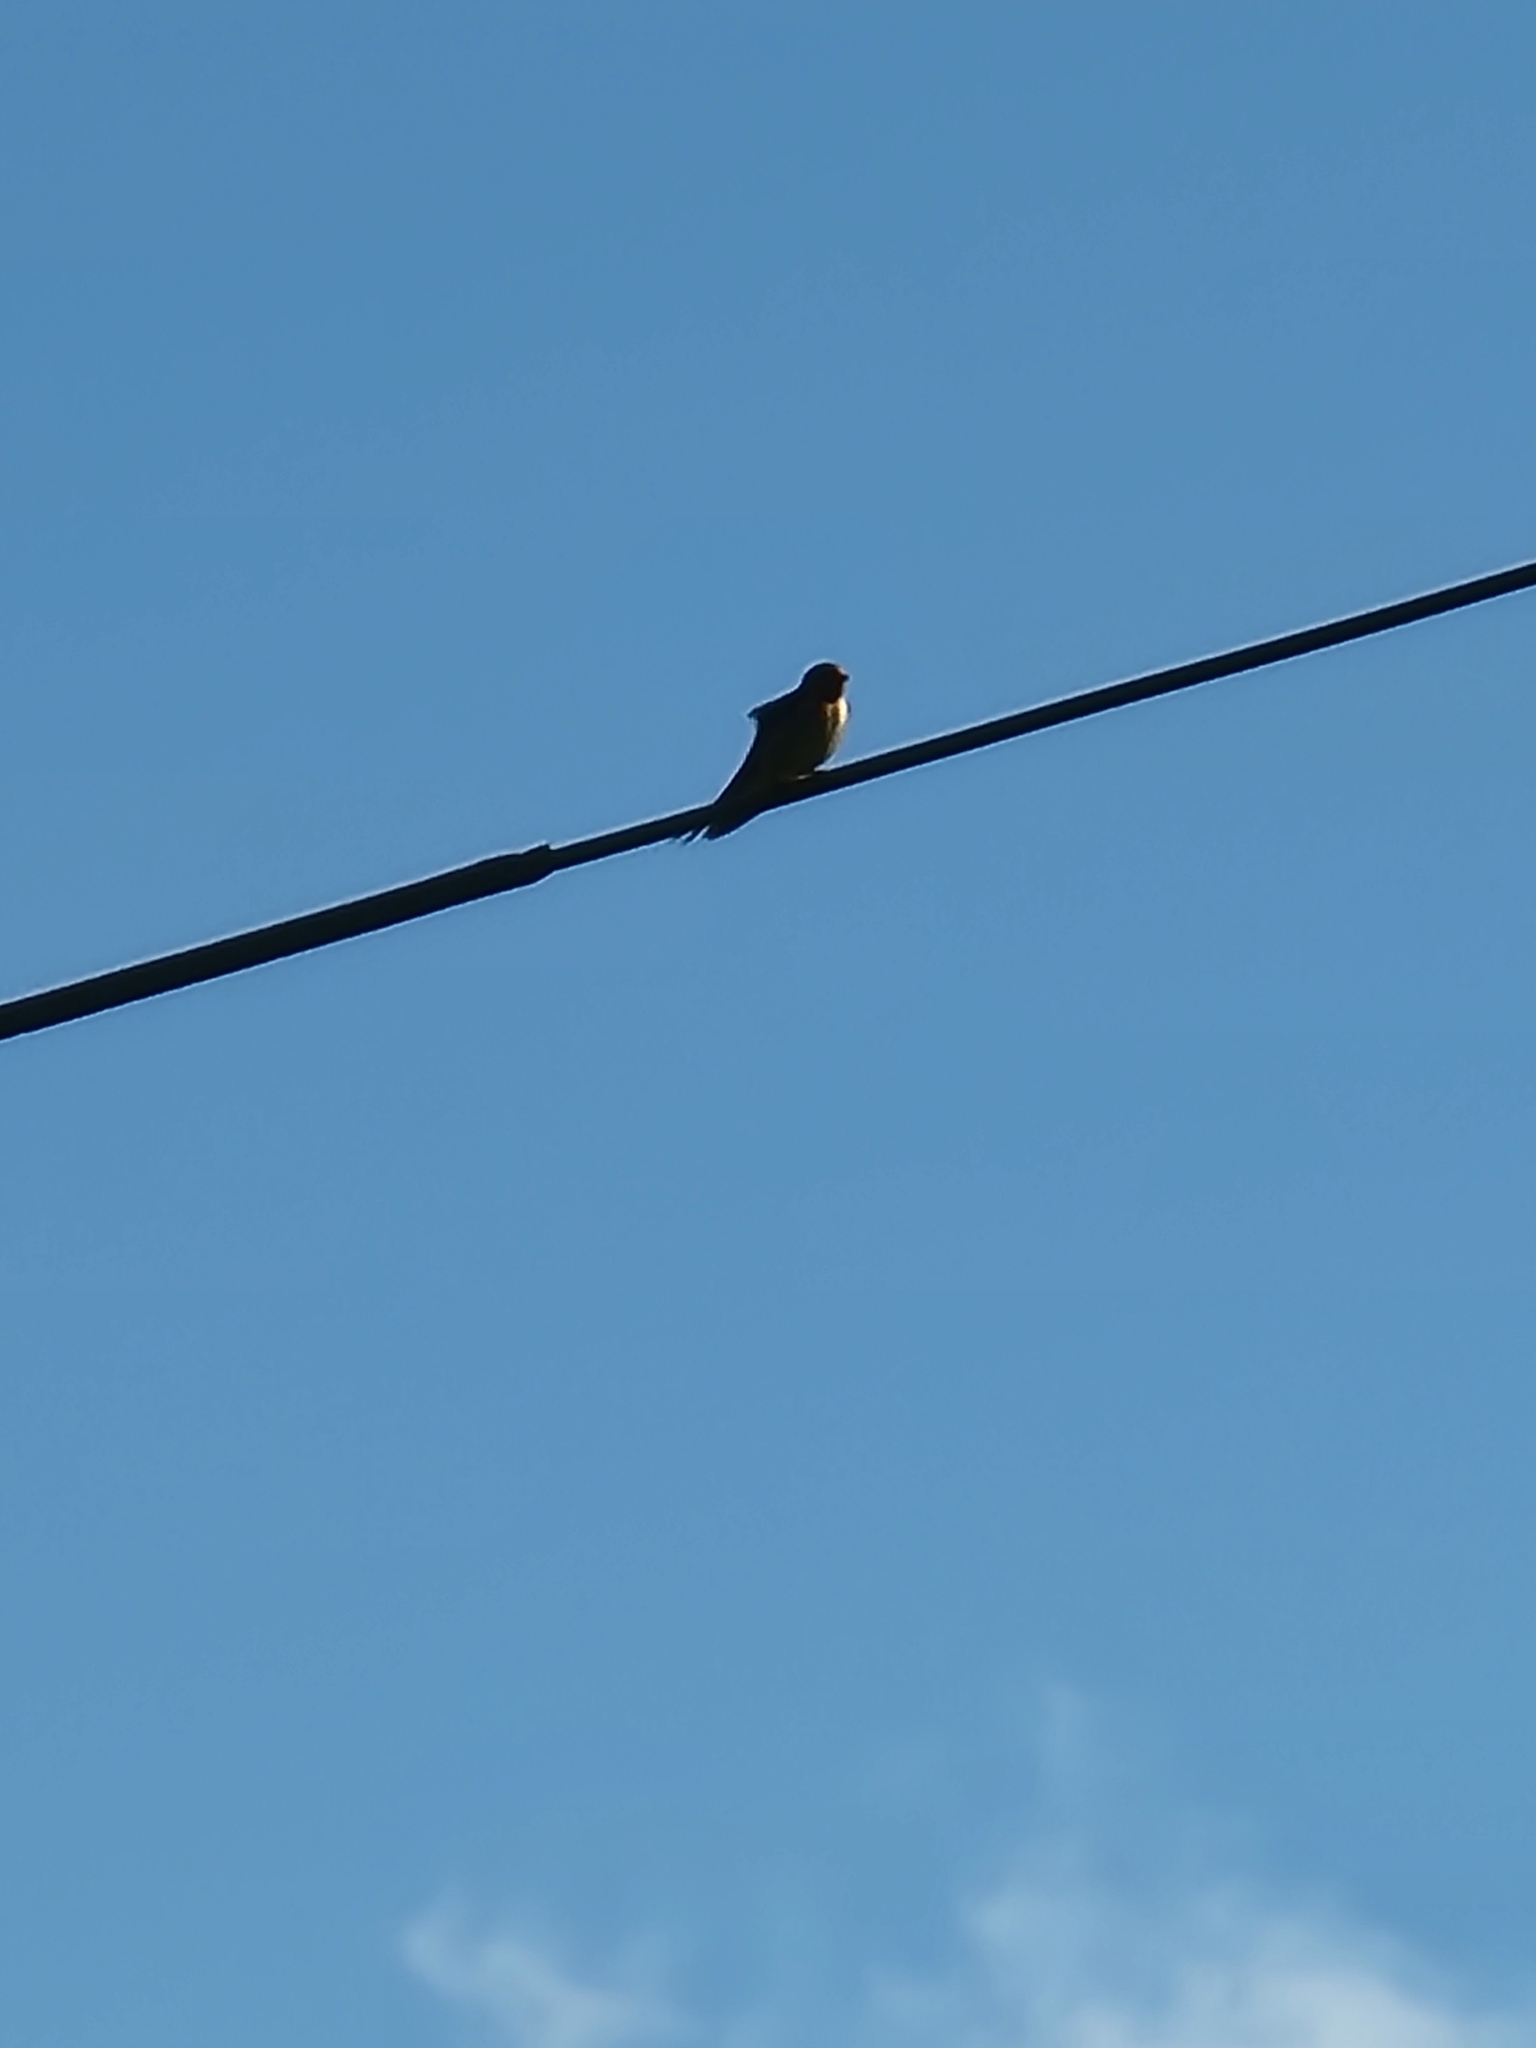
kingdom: Animalia
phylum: Chordata
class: Aves
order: Passeriformes
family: Hirundinidae
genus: Hirundo
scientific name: Hirundo neoxena
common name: Welcome swallow
